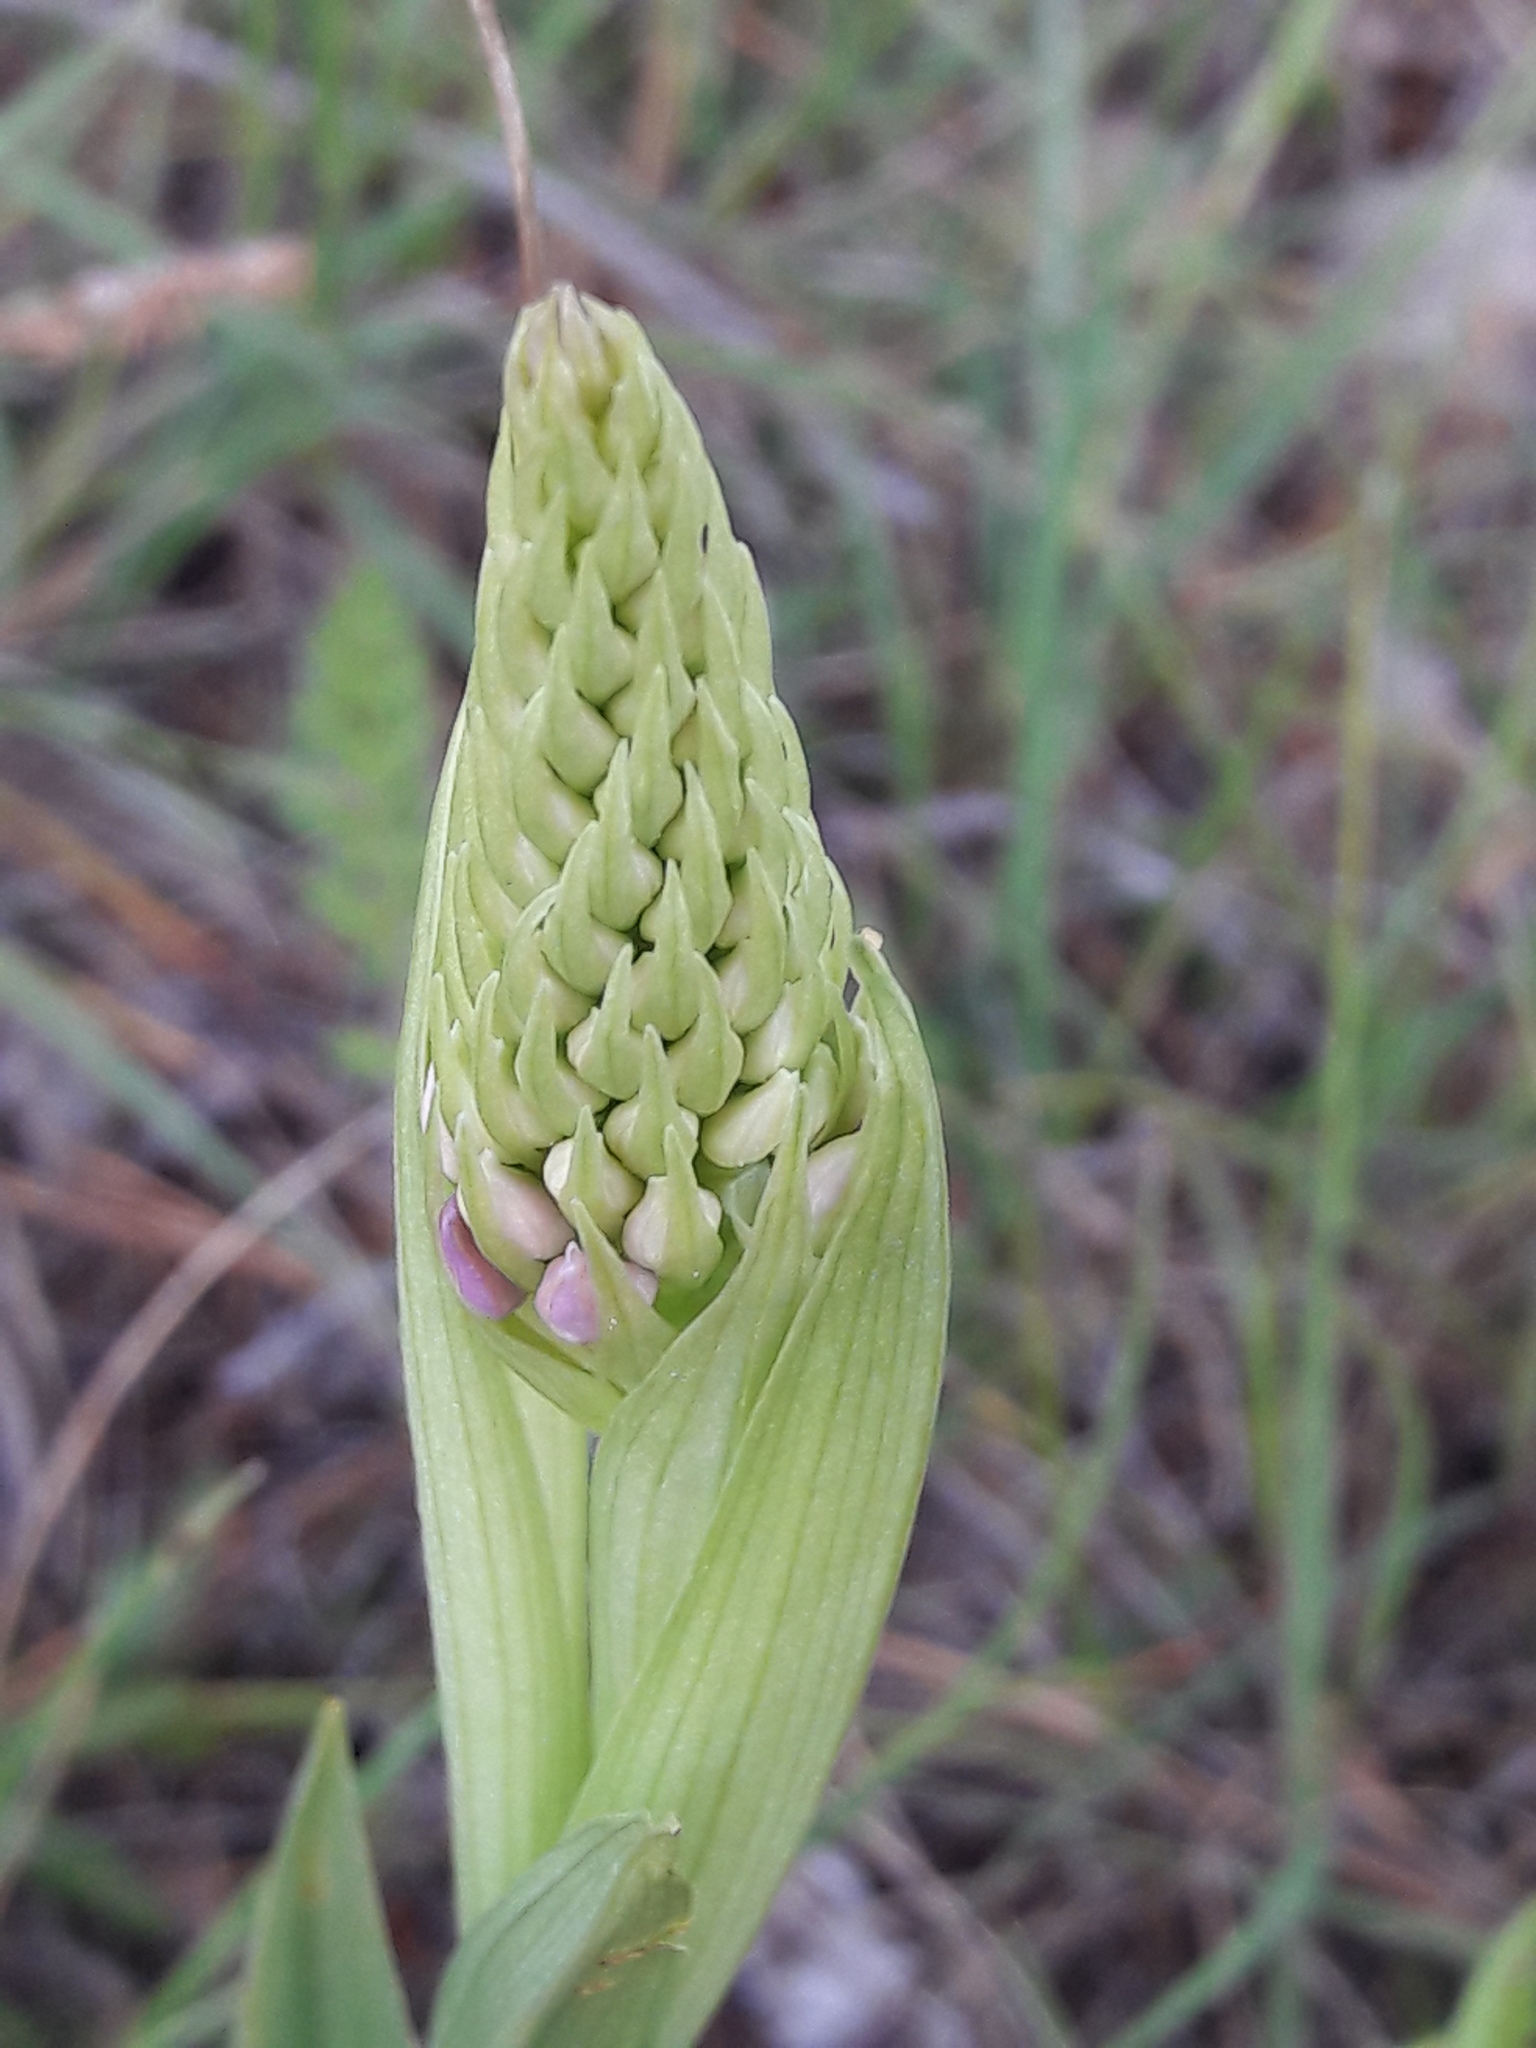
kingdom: Plantae
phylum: Tracheophyta
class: Liliopsida
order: Asparagales
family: Orchidaceae
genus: Anacamptis
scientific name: Anacamptis pyramidalis
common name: Pyramidal orchid
